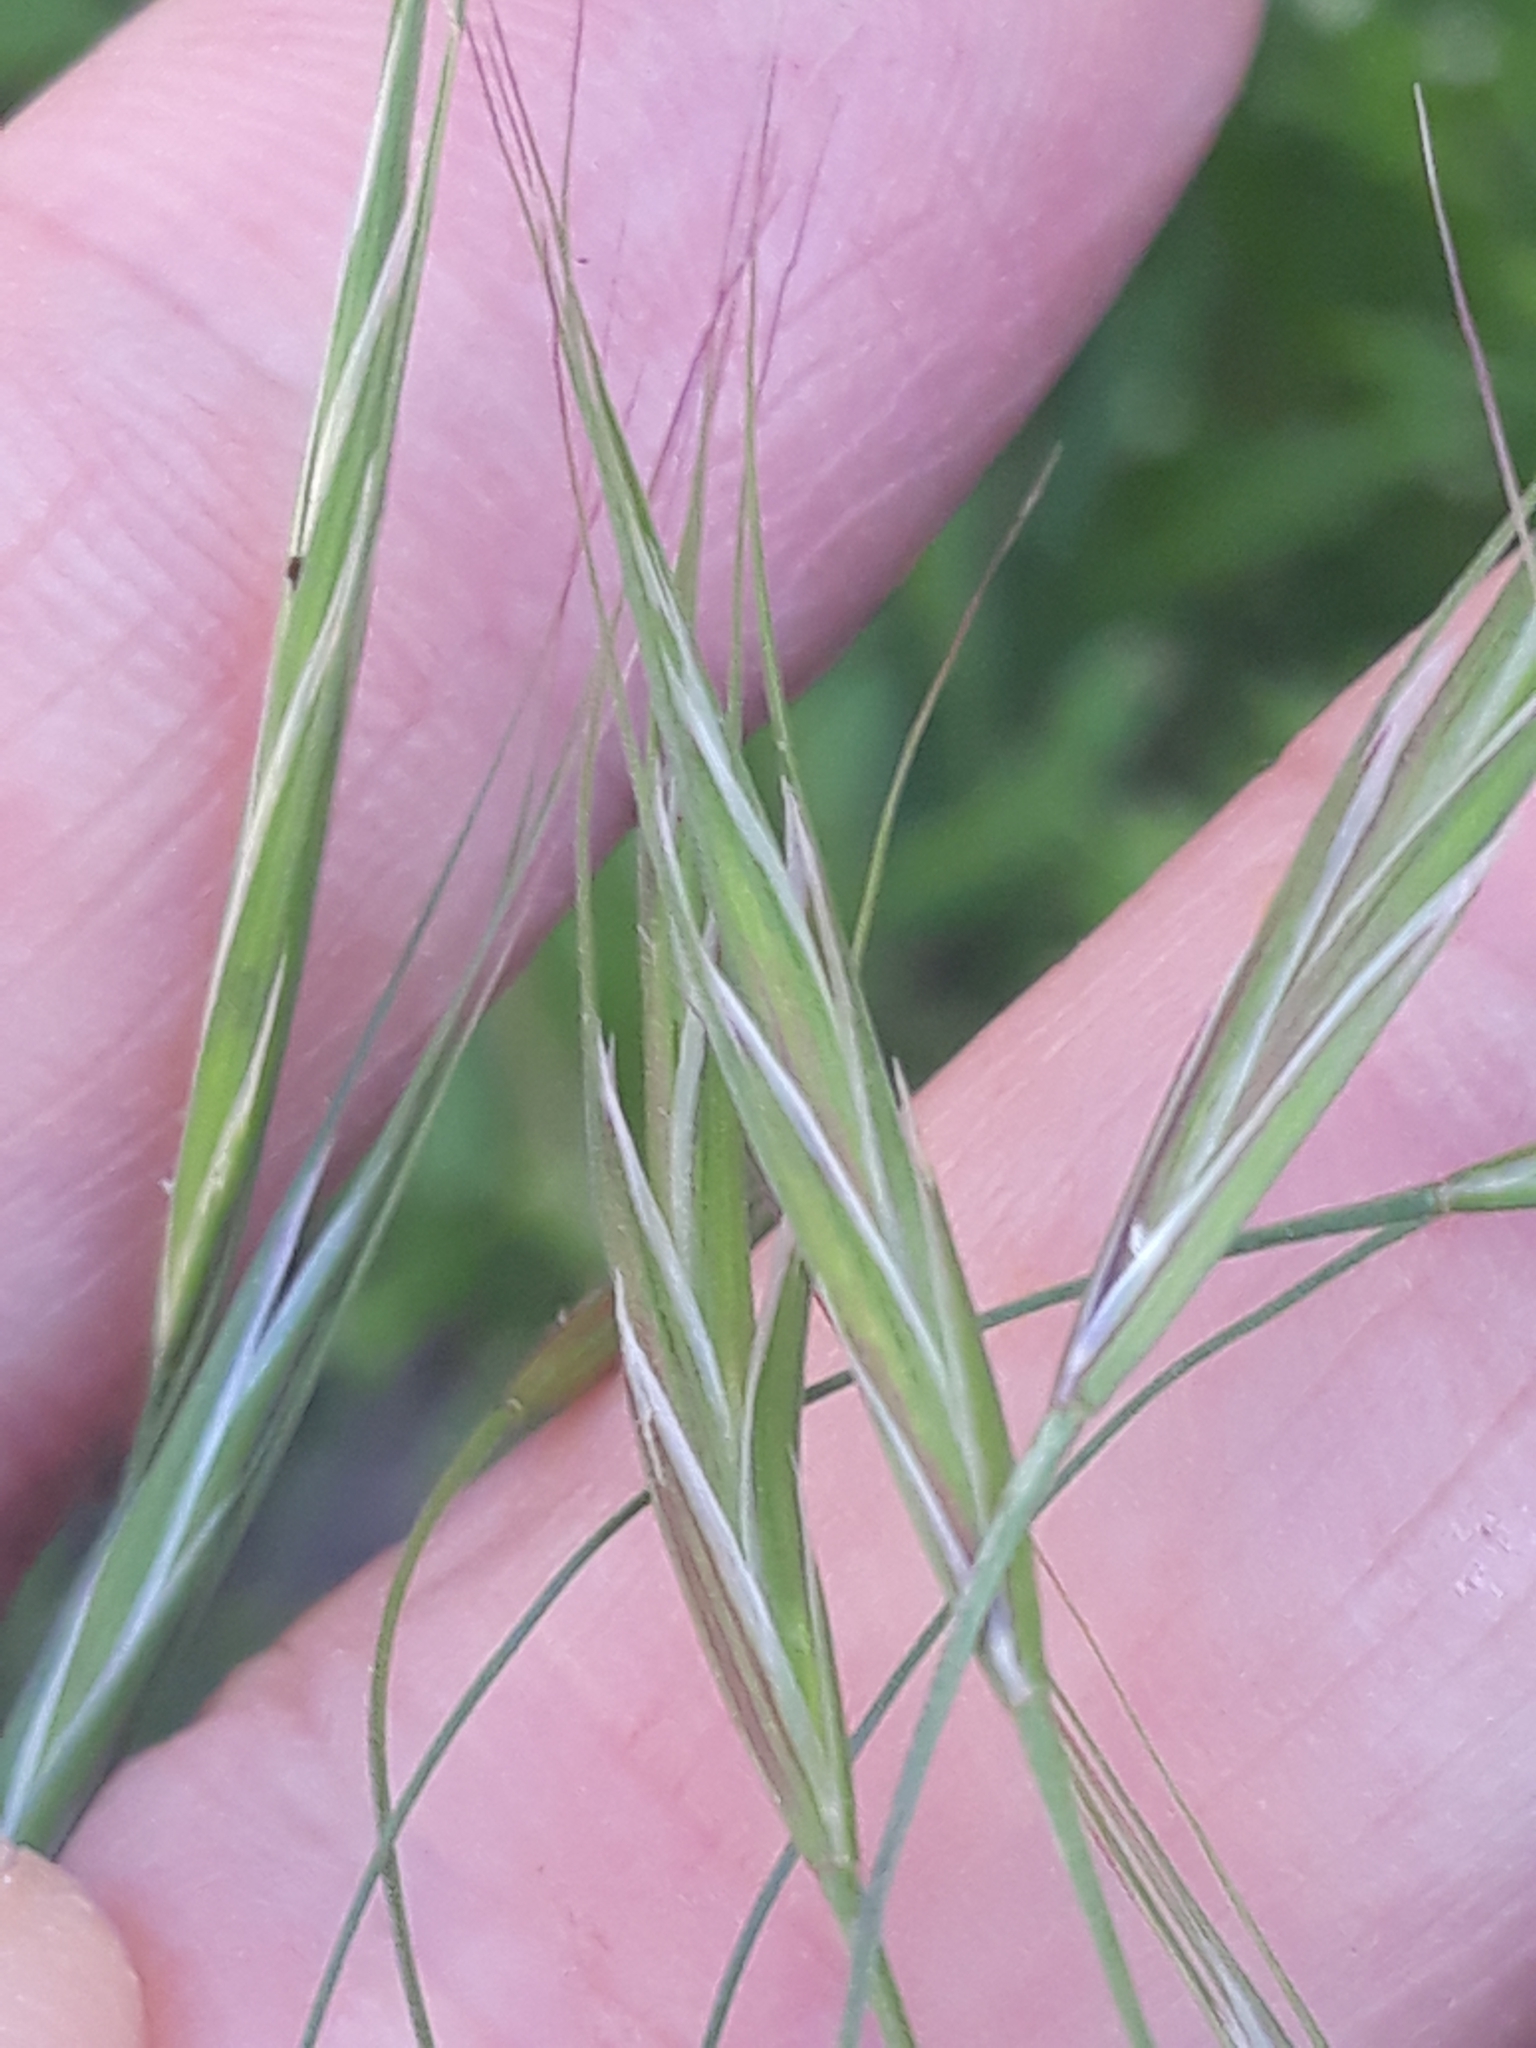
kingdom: Plantae
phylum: Tracheophyta
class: Liliopsida
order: Poales
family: Poaceae
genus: Bromus
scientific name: Bromus sterilis
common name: Poverty brome
